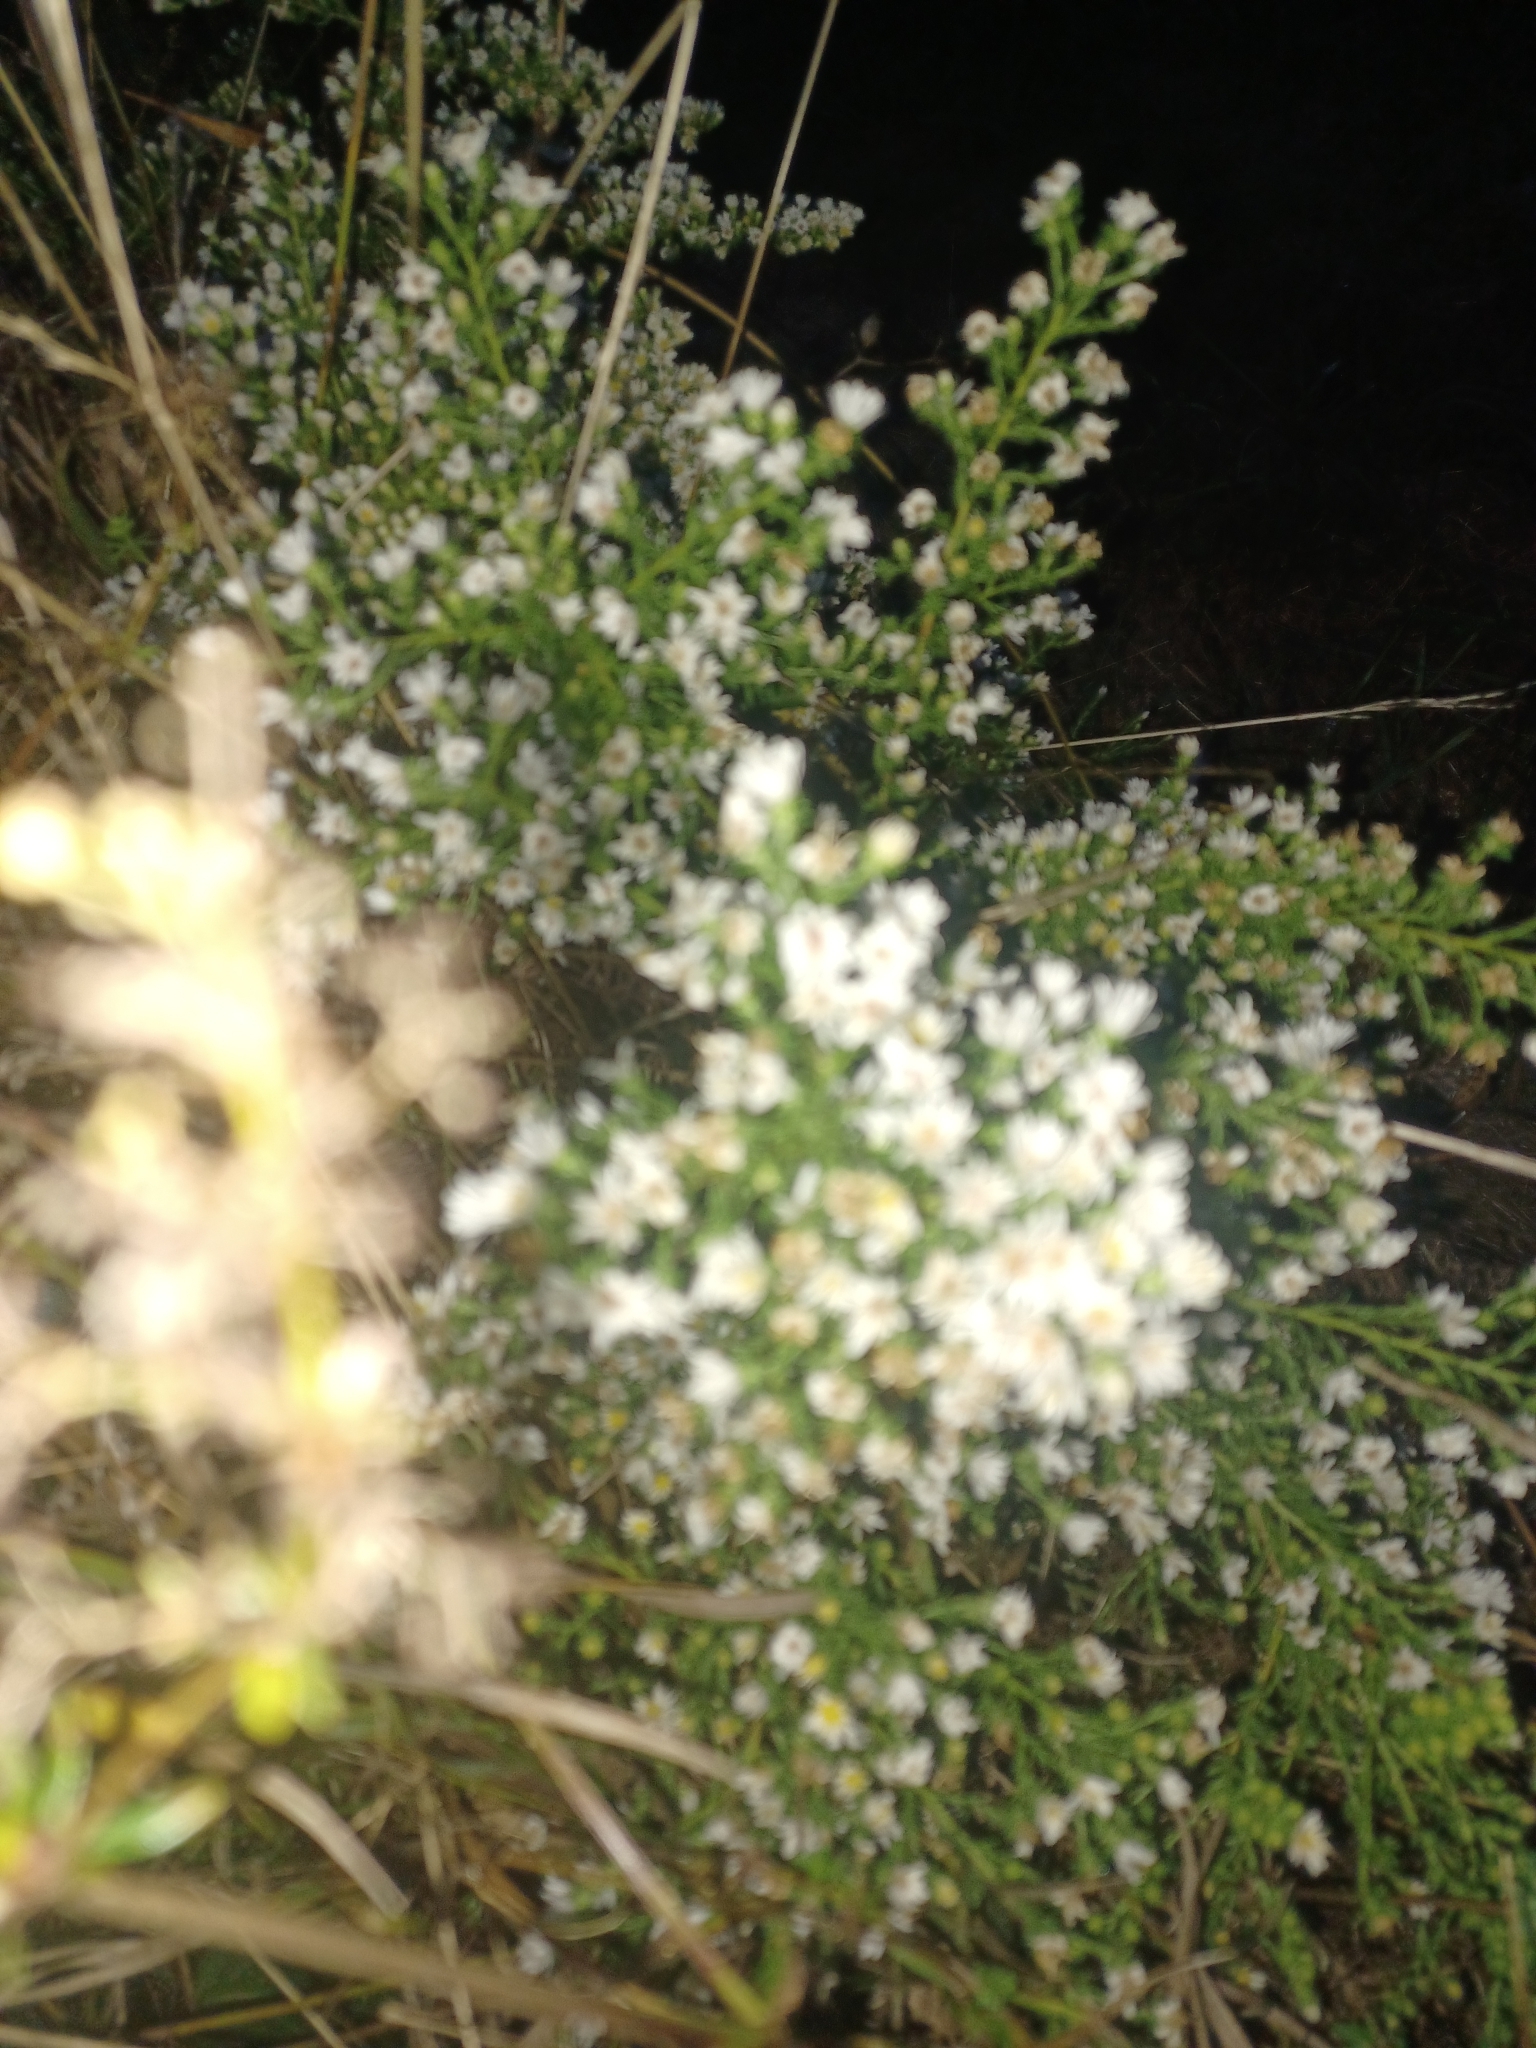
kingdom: Plantae
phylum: Tracheophyta
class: Magnoliopsida
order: Asterales
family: Asteraceae
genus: Symphyotrichum
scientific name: Symphyotrichum ericoides
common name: Heath aster
